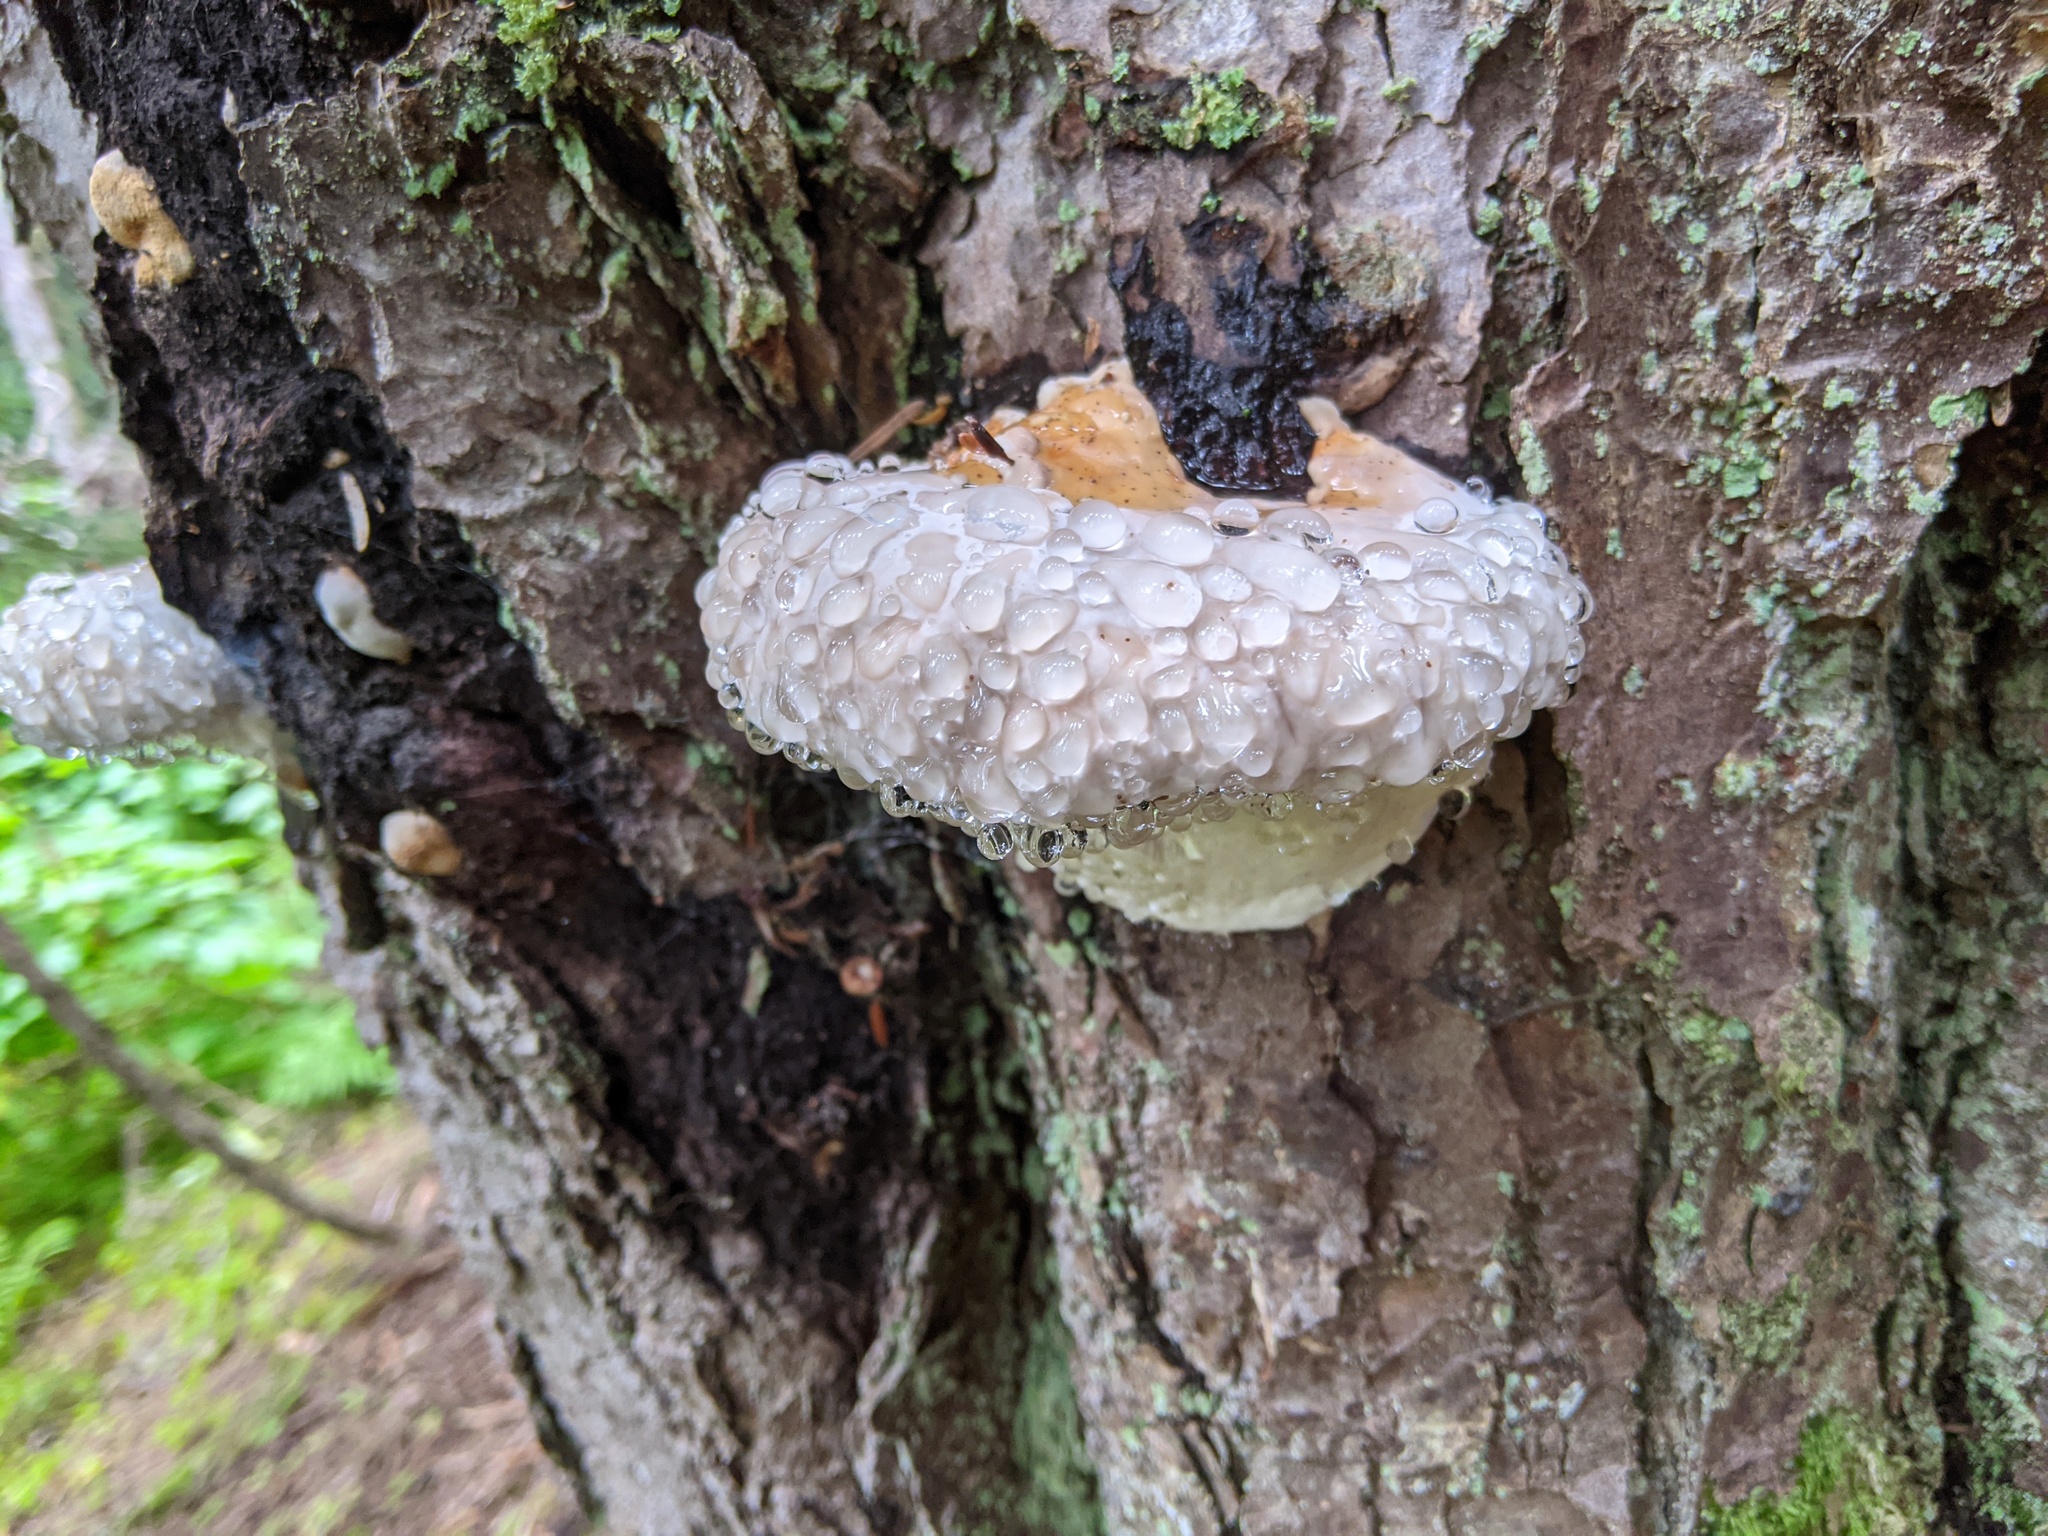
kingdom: Fungi
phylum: Basidiomycota
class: Agaricomycetes
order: Polyporales
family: Fomitopsidaceae
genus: Fomitopsis
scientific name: Fomitopsis
